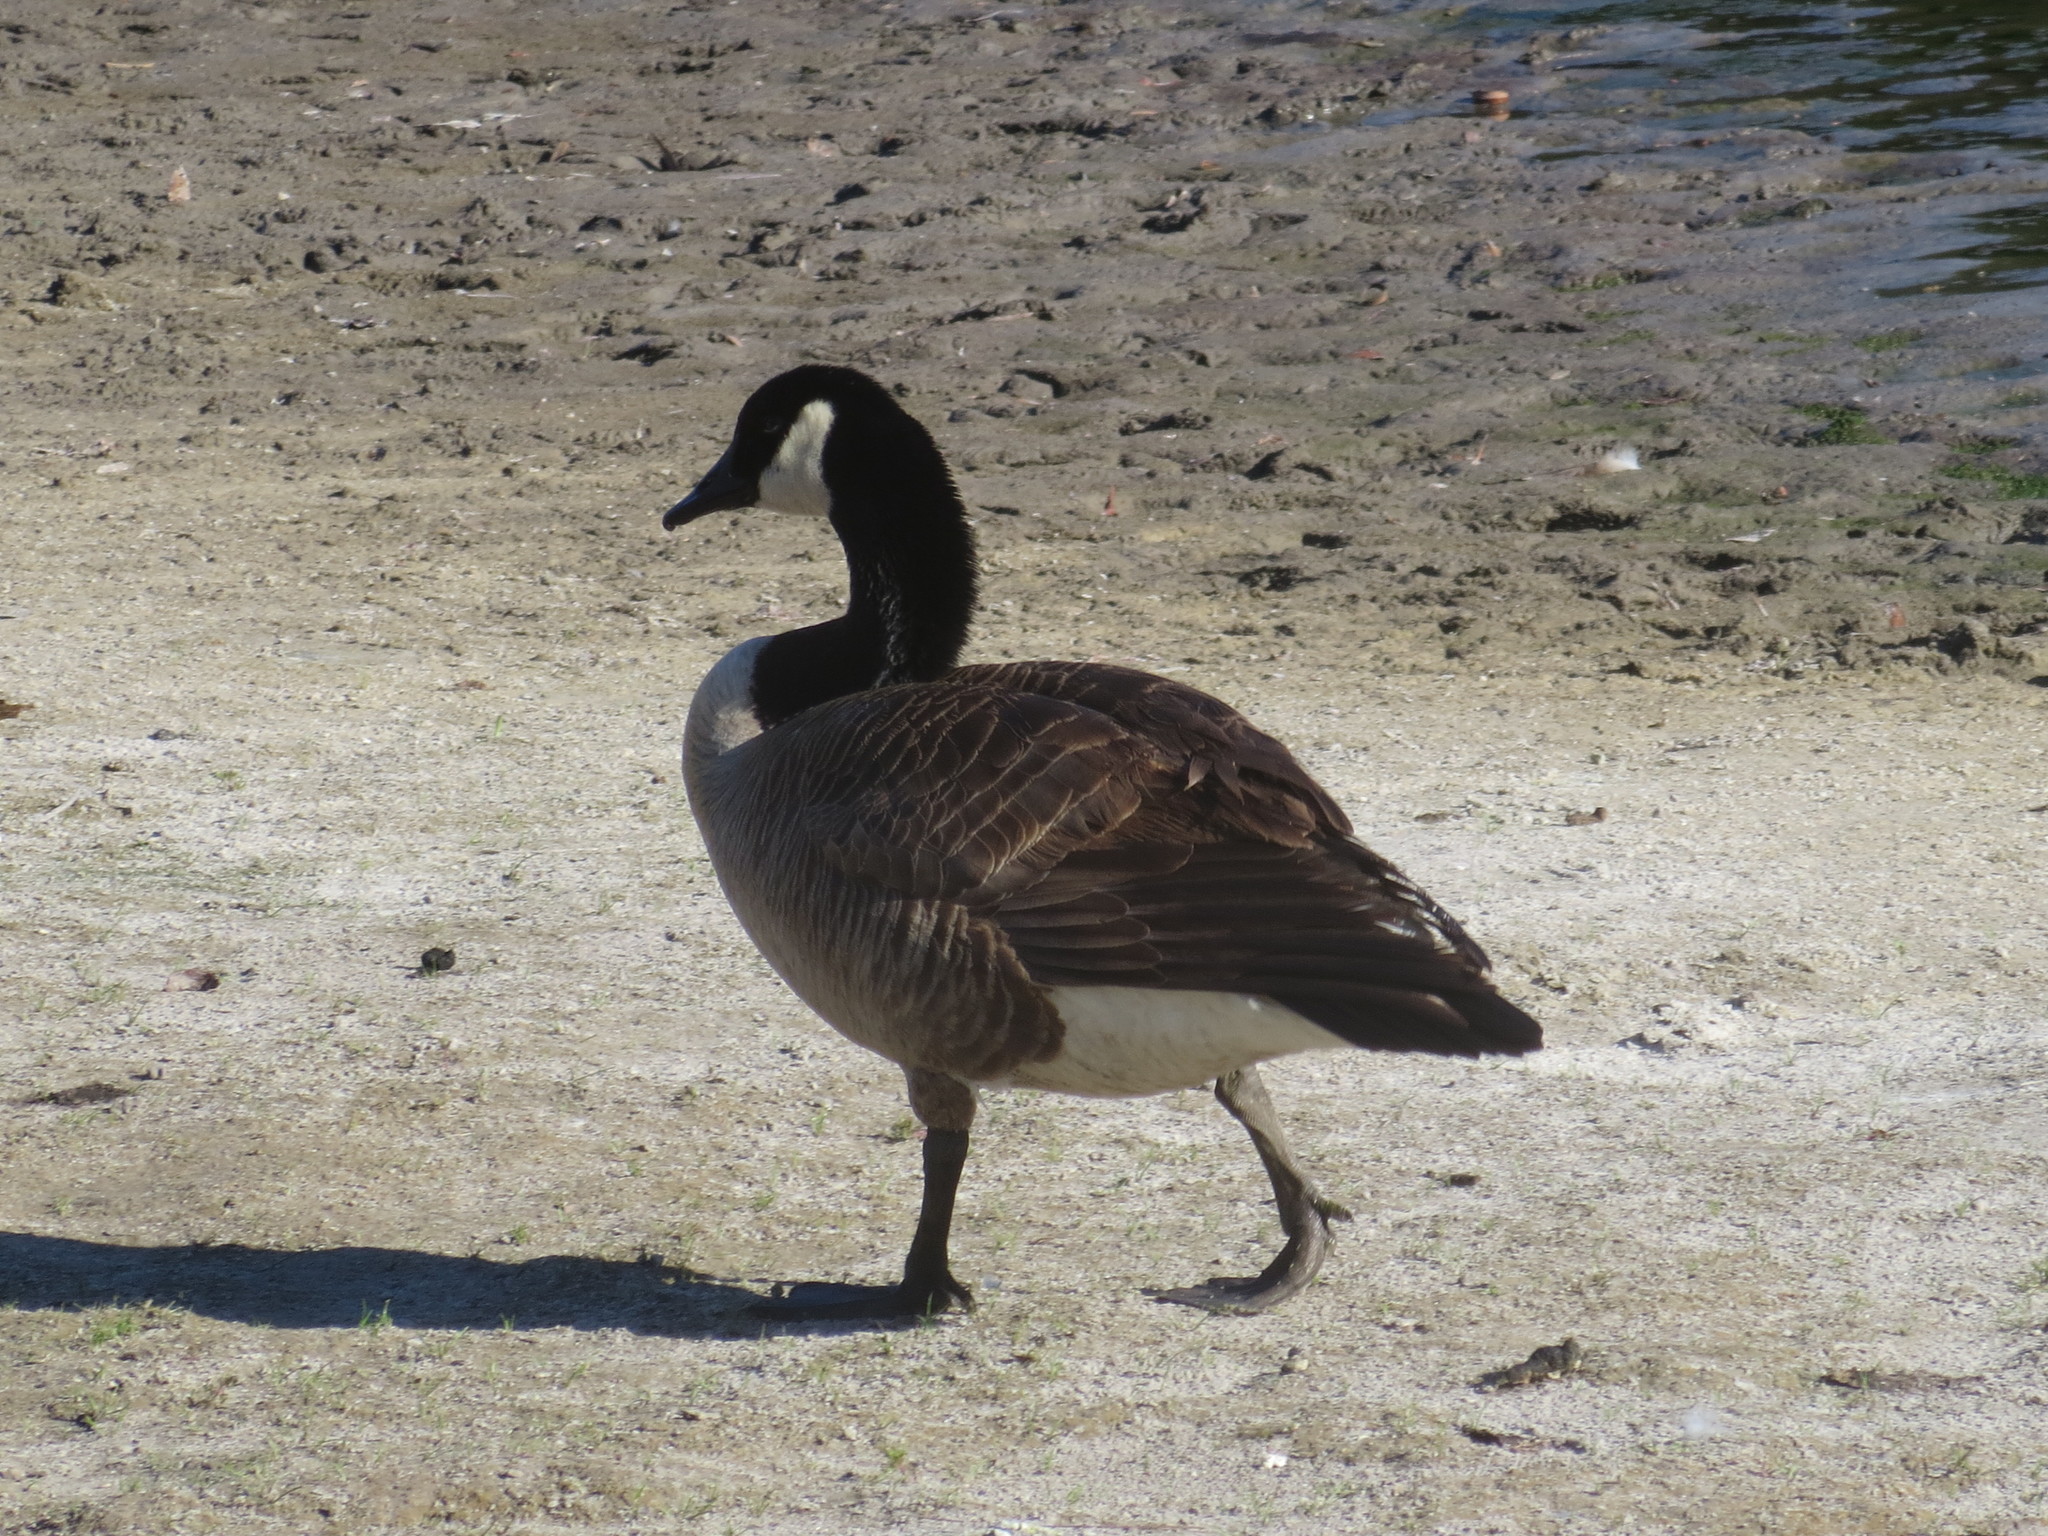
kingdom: Animalia
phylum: Chordata
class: Aves
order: Anseriformes
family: Anatidae
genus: Branta
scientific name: Branta canadensis
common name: Canada goose
